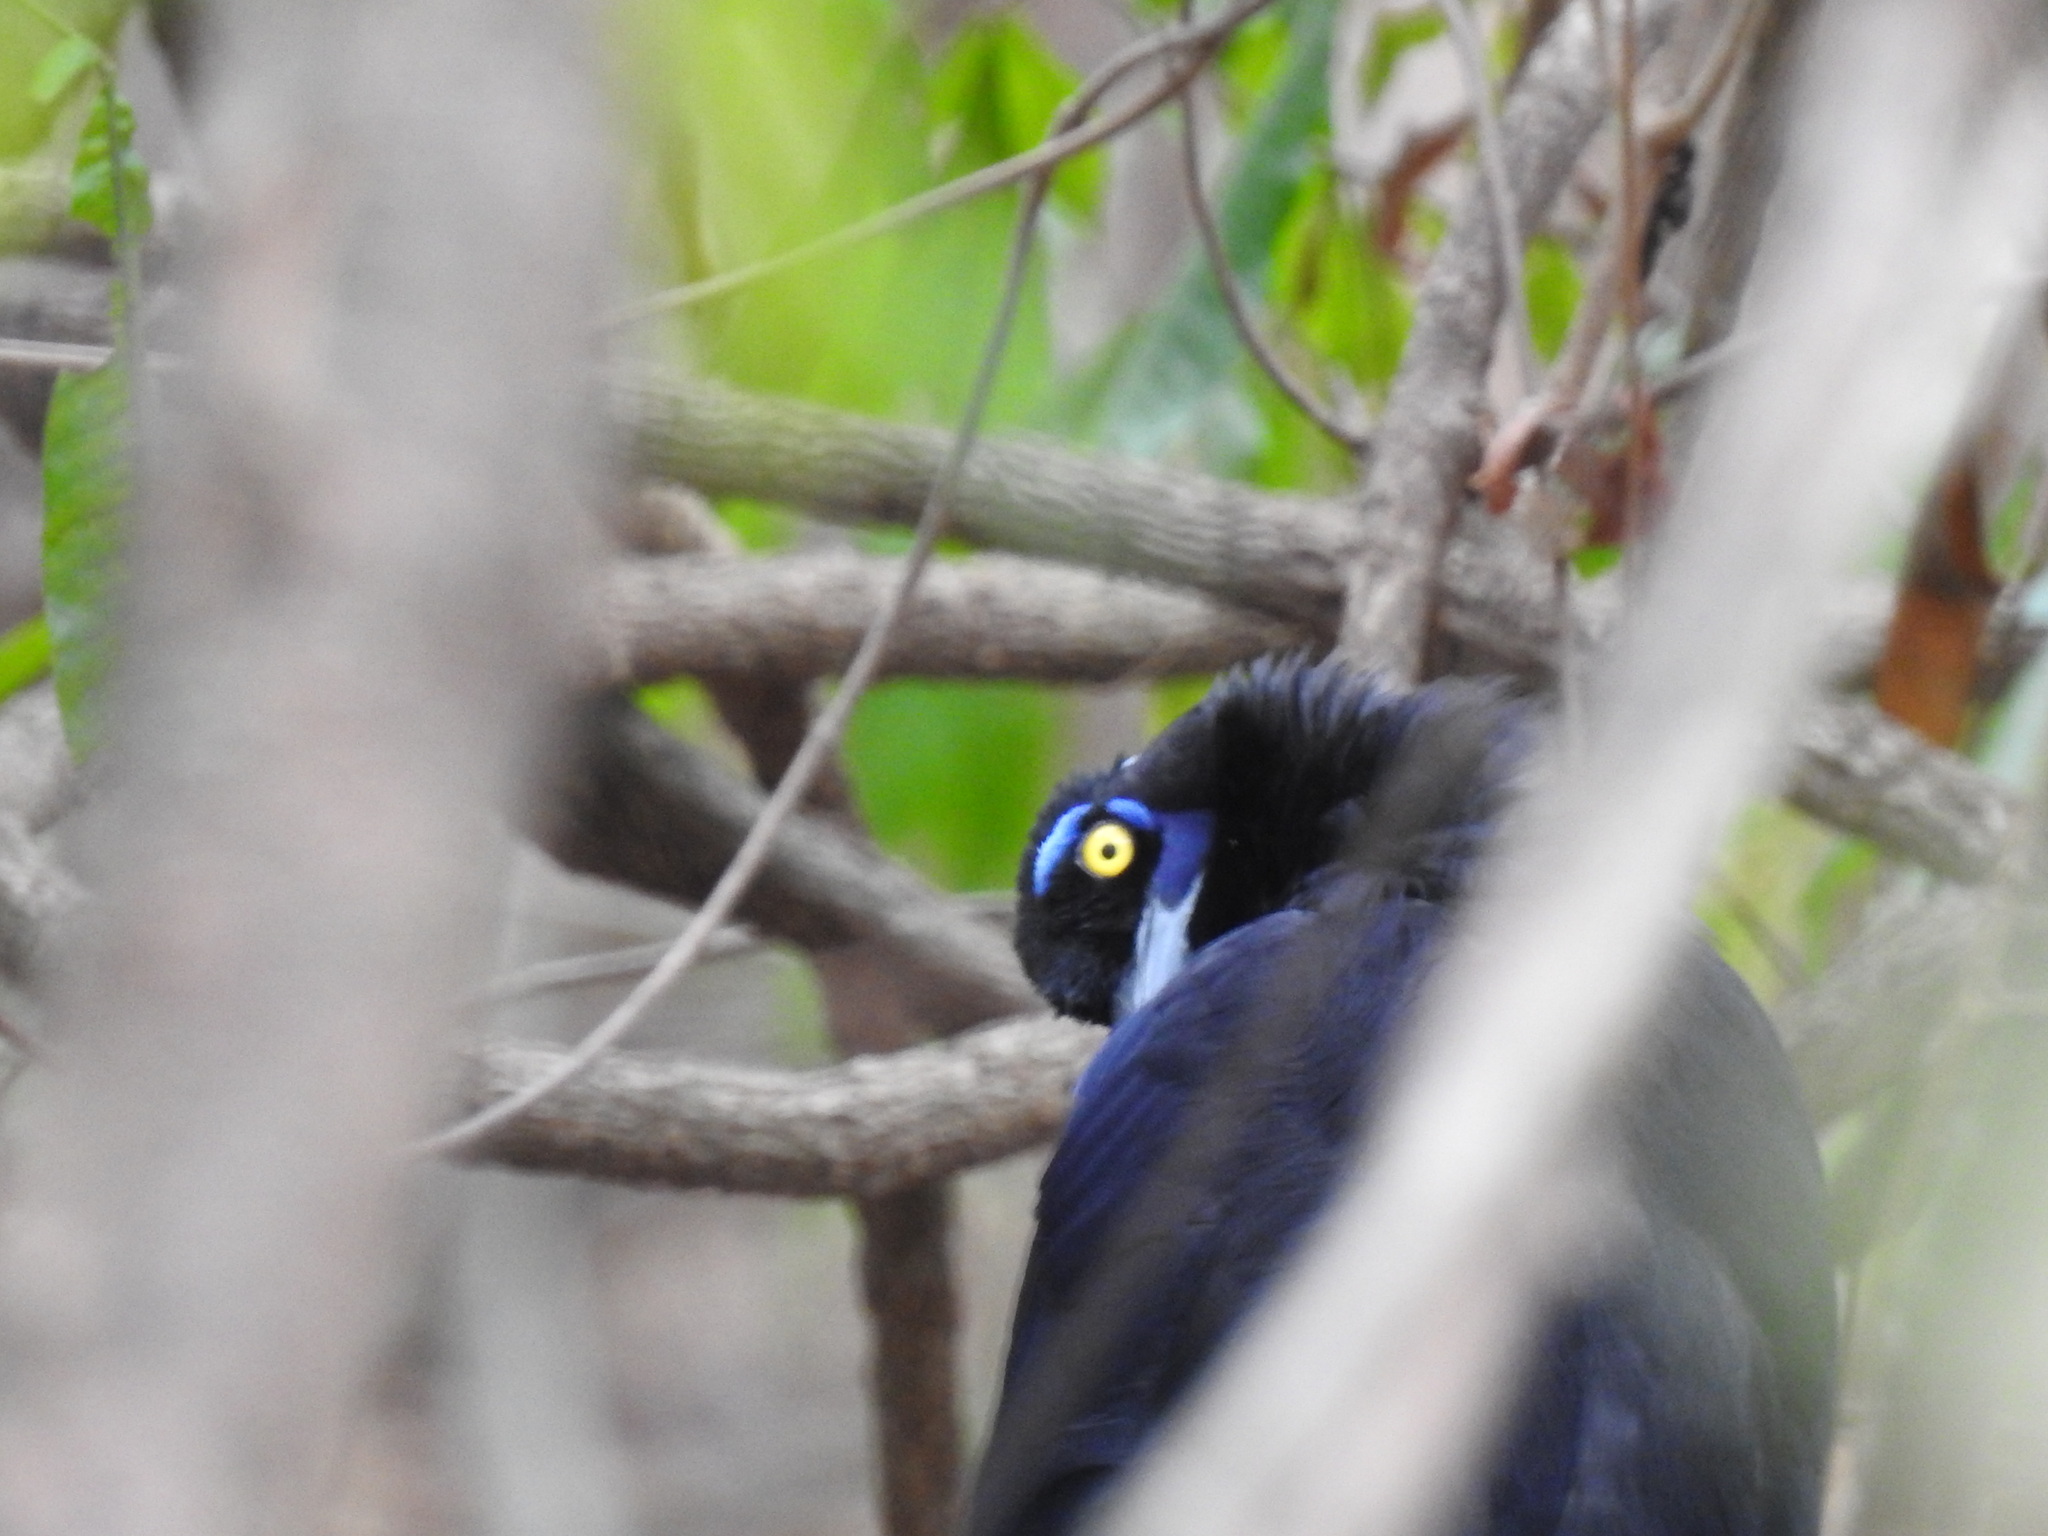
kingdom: Animalia
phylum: Chordata
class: Aves
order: Passeriformes
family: Corvidae
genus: Cyanocorax
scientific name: Cyanocorax chrysops
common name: Plush-crested jay
